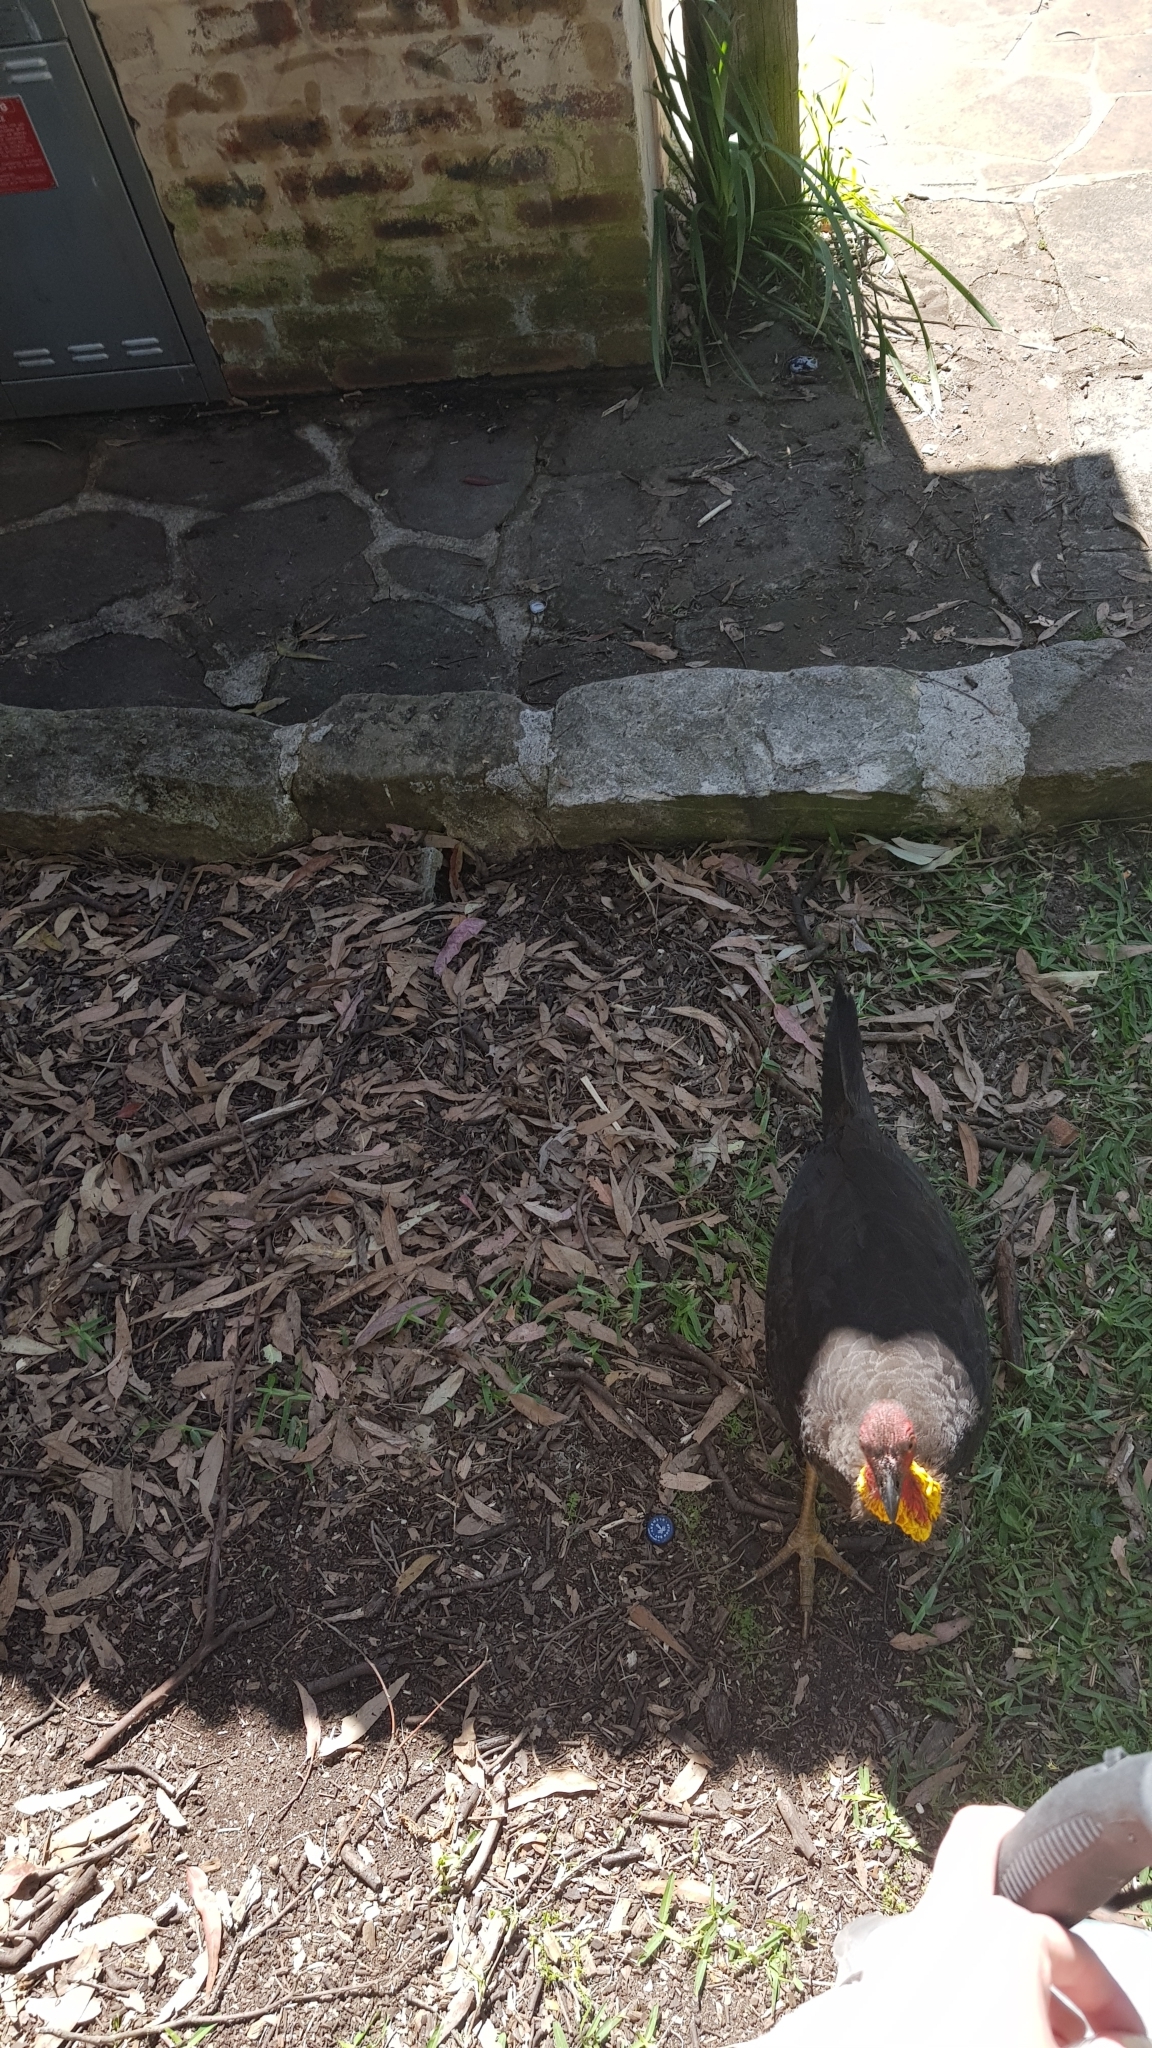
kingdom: Animalia
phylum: Chordata
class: Aves
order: Galliformes
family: Megapodiidae
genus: Alectura
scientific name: Alectura lathami
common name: Australian brushturkey
